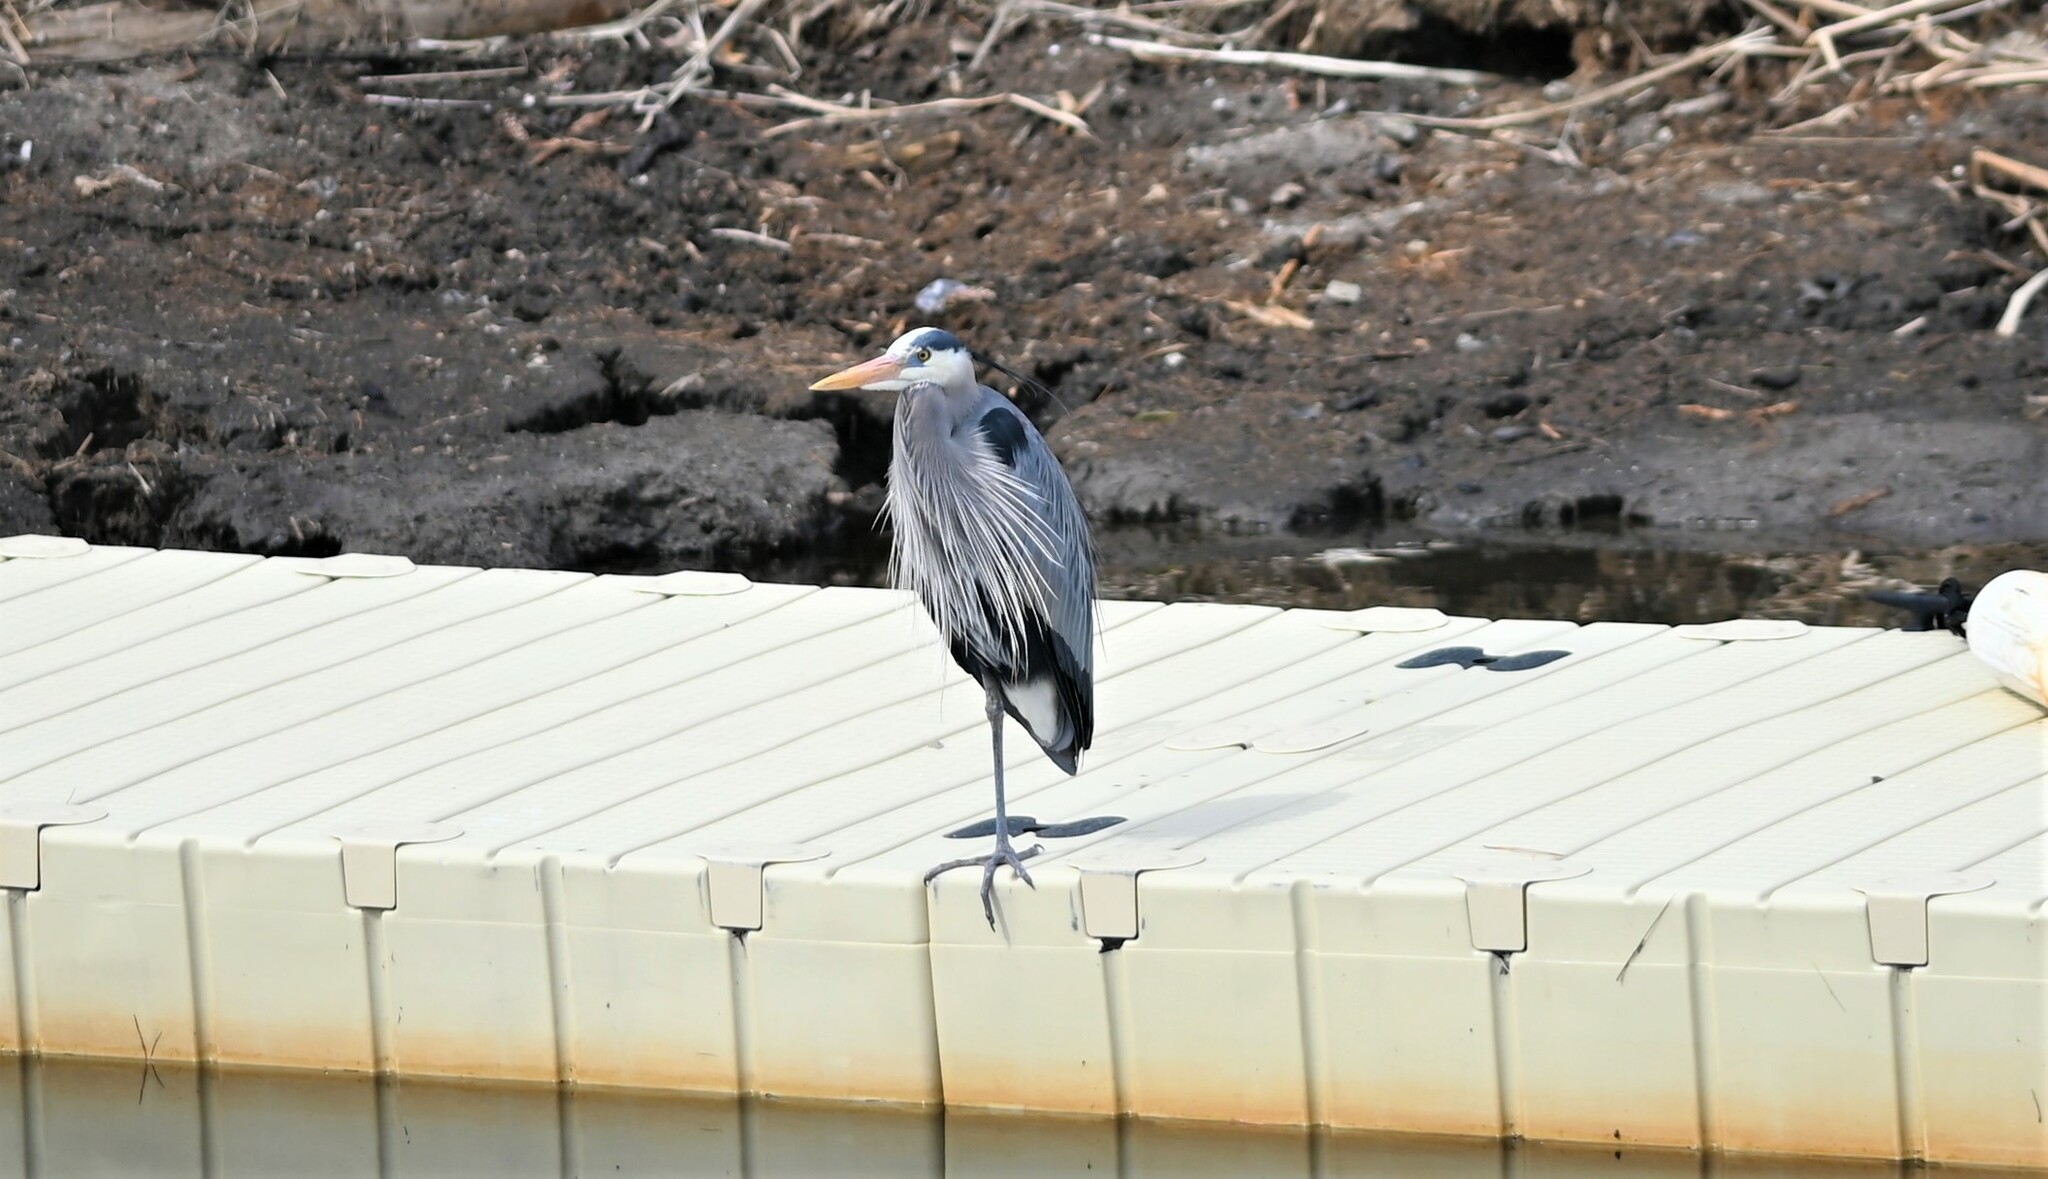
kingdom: Animalia
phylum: Chordata
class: Aves
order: Pelecaniformes
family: Ardeidae
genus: Ardea
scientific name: Ardea herodias
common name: Great blue heron
